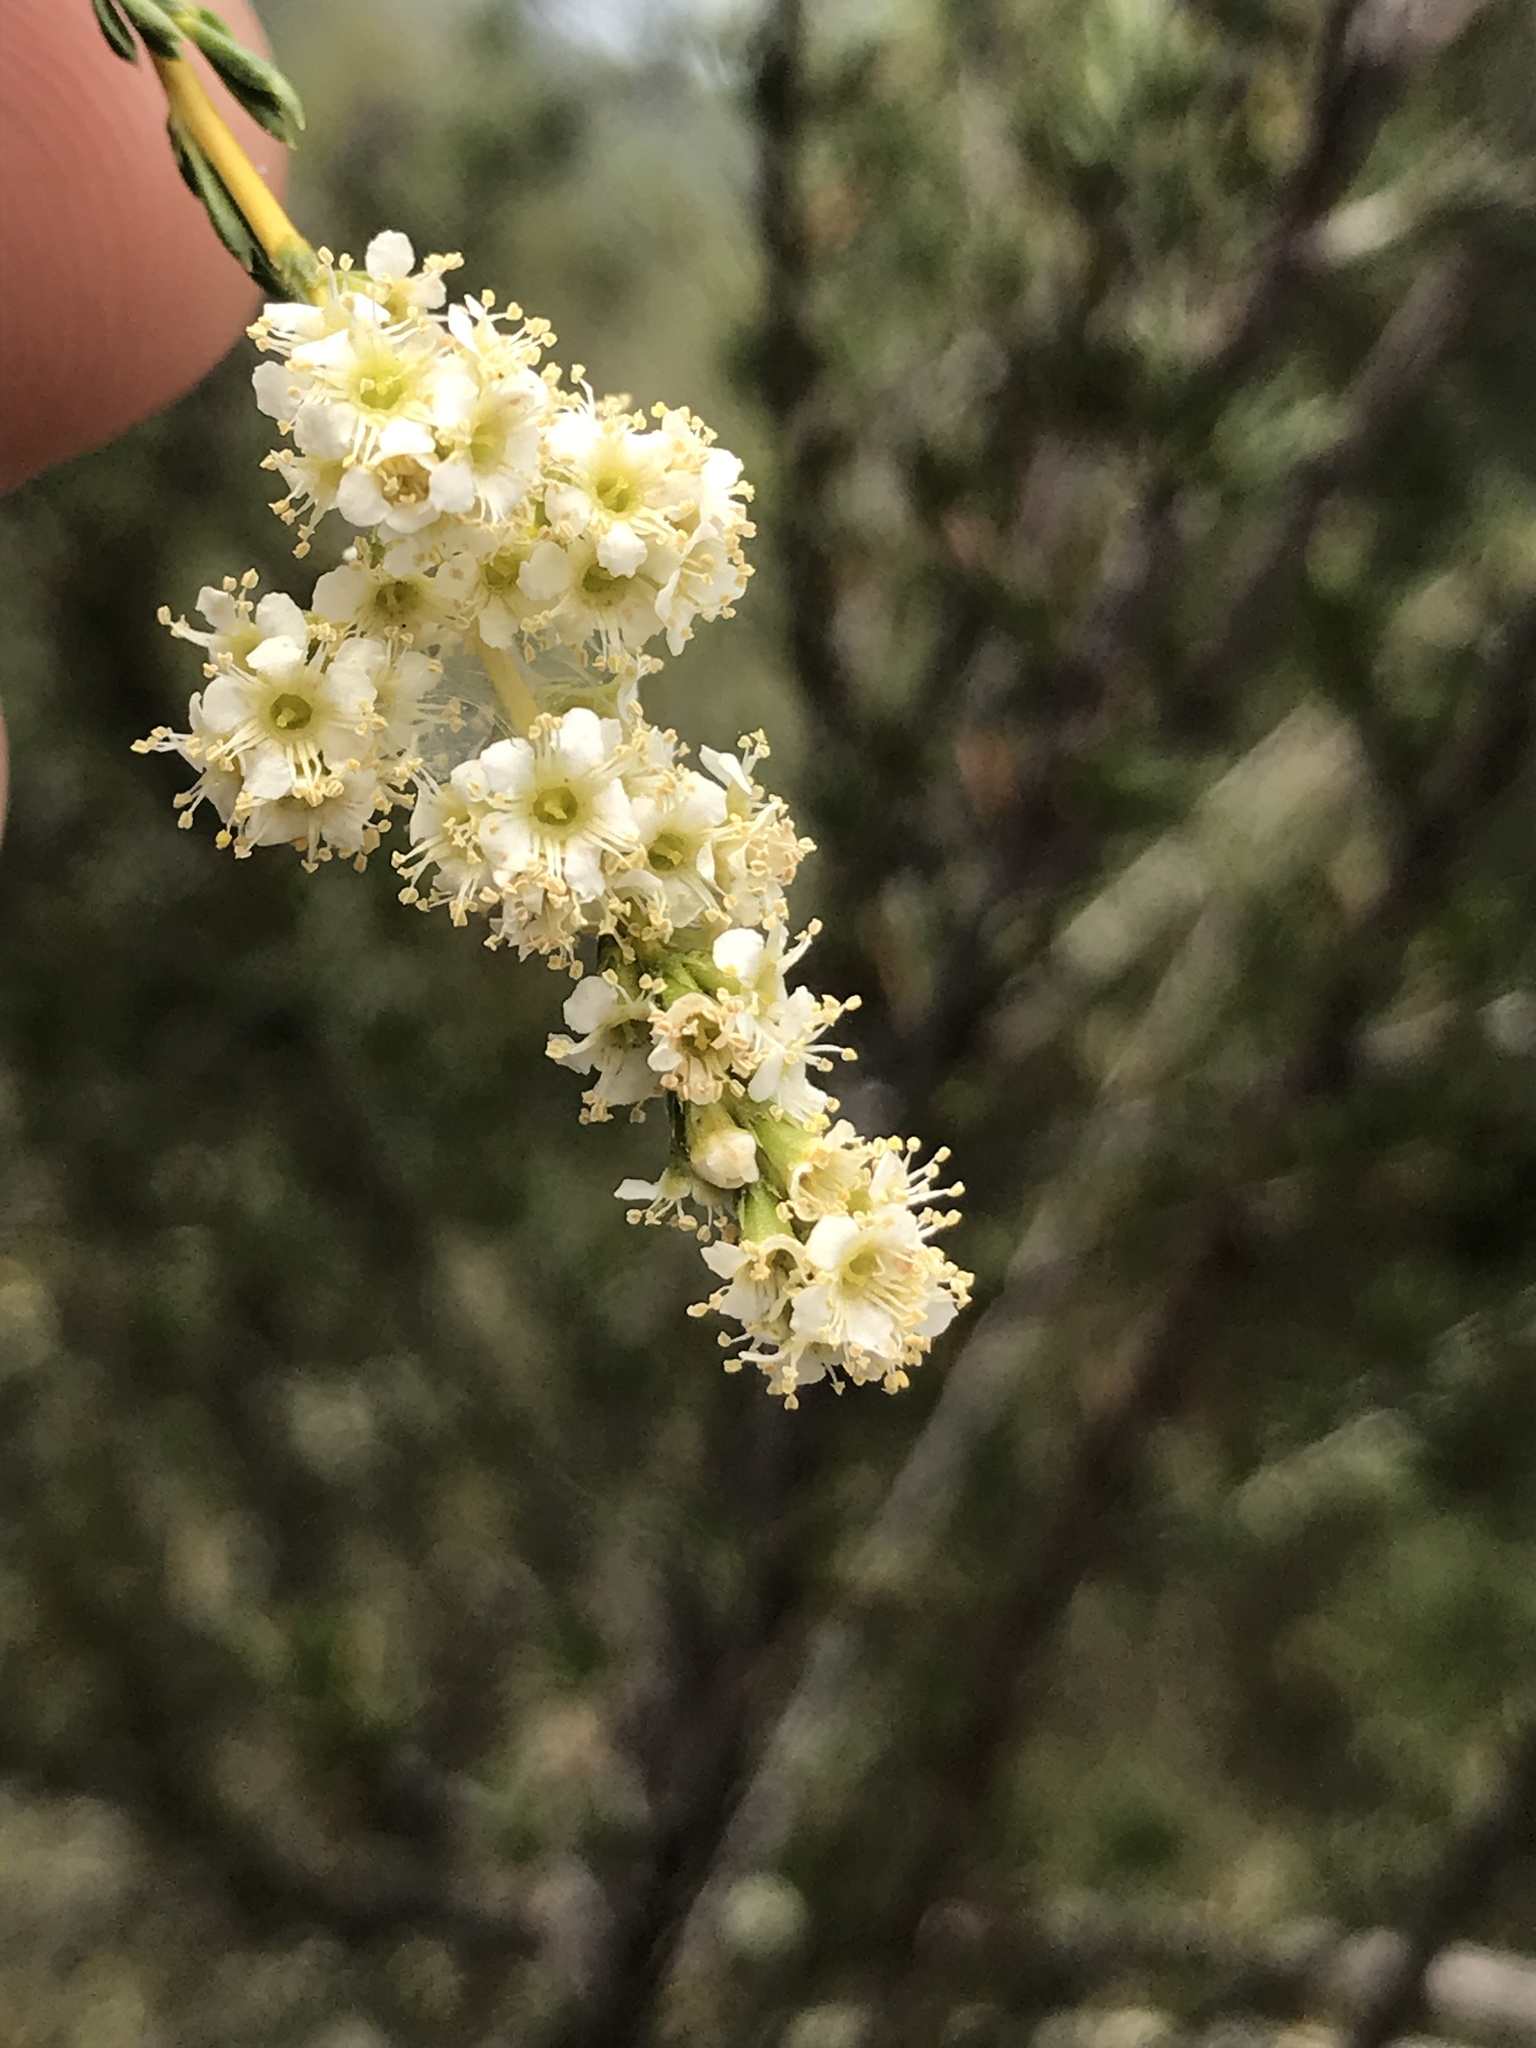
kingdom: Plantae
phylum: Tracheophyta
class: Magnoliopsida
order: Rosales
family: Rosaceae
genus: Adenostoma
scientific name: Adenostoma fasciculatum
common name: Chamise
